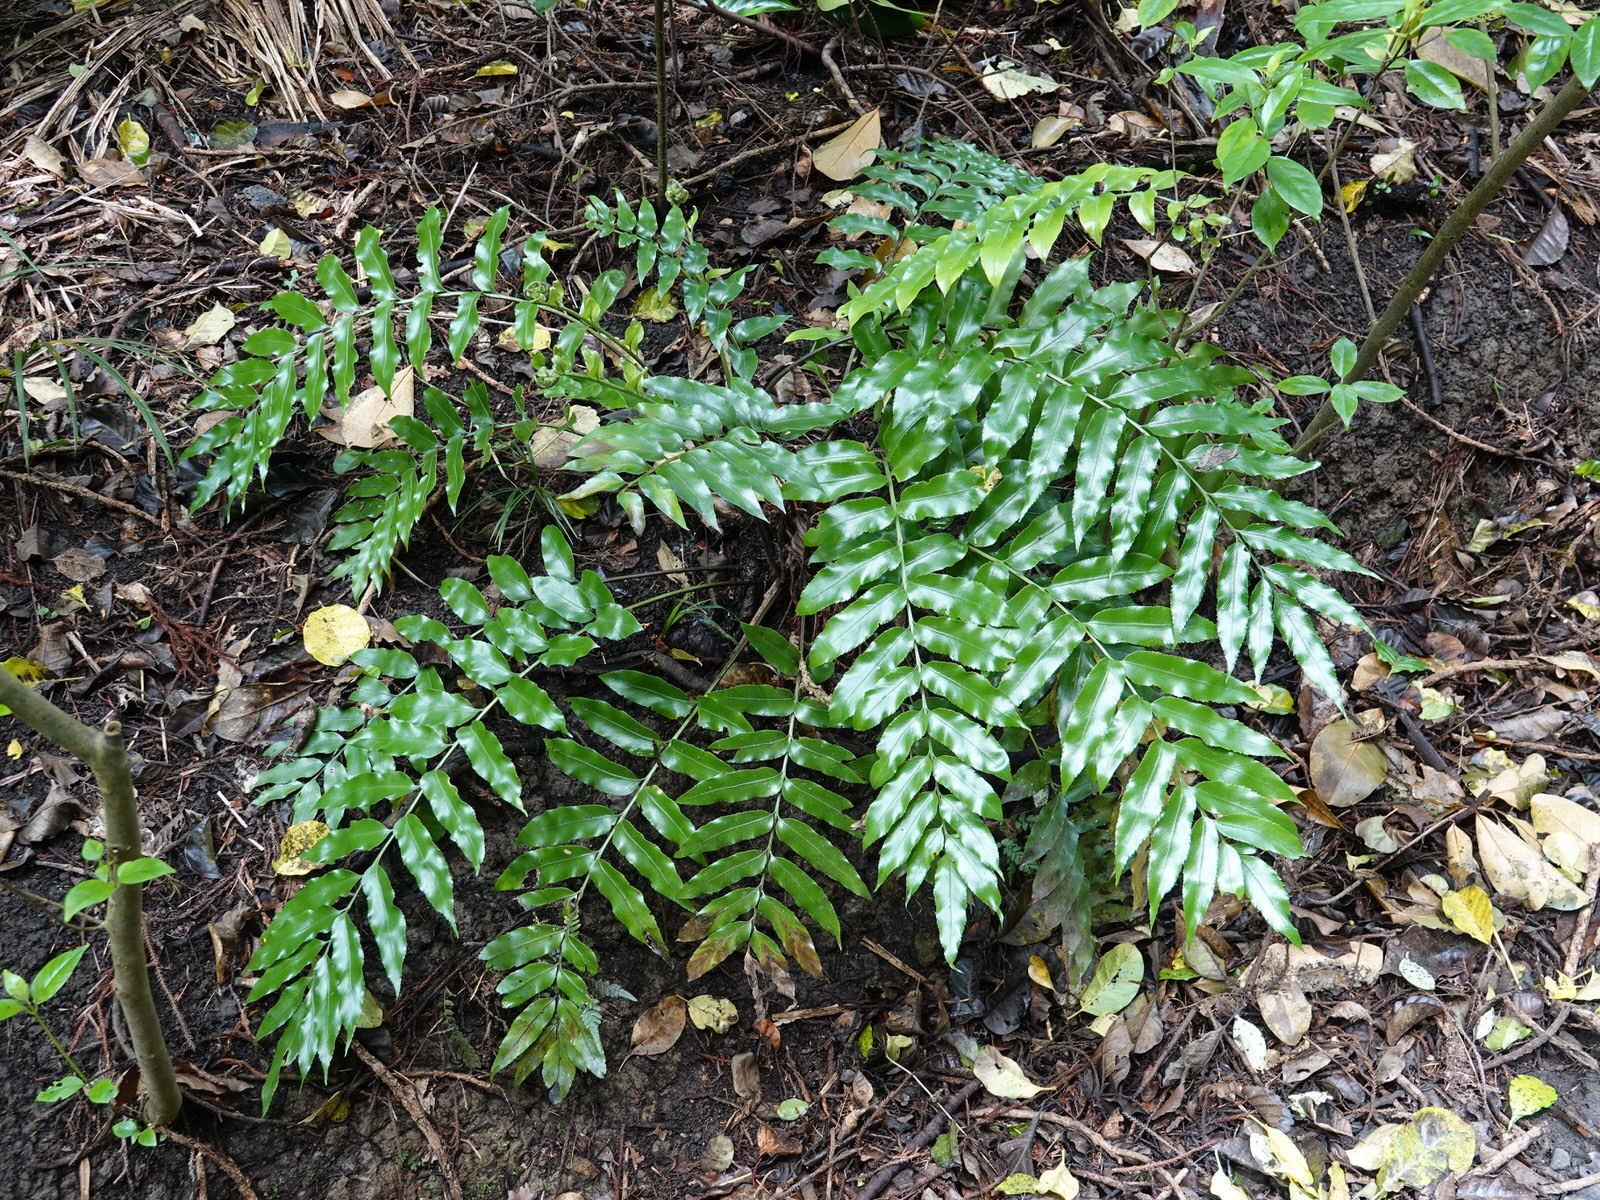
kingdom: Plantae
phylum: Tracheophyta
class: Polypodiopsida
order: Polypodiales
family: Aspleniaceae
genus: Asplenium
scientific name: Asplenium oblongifolium
